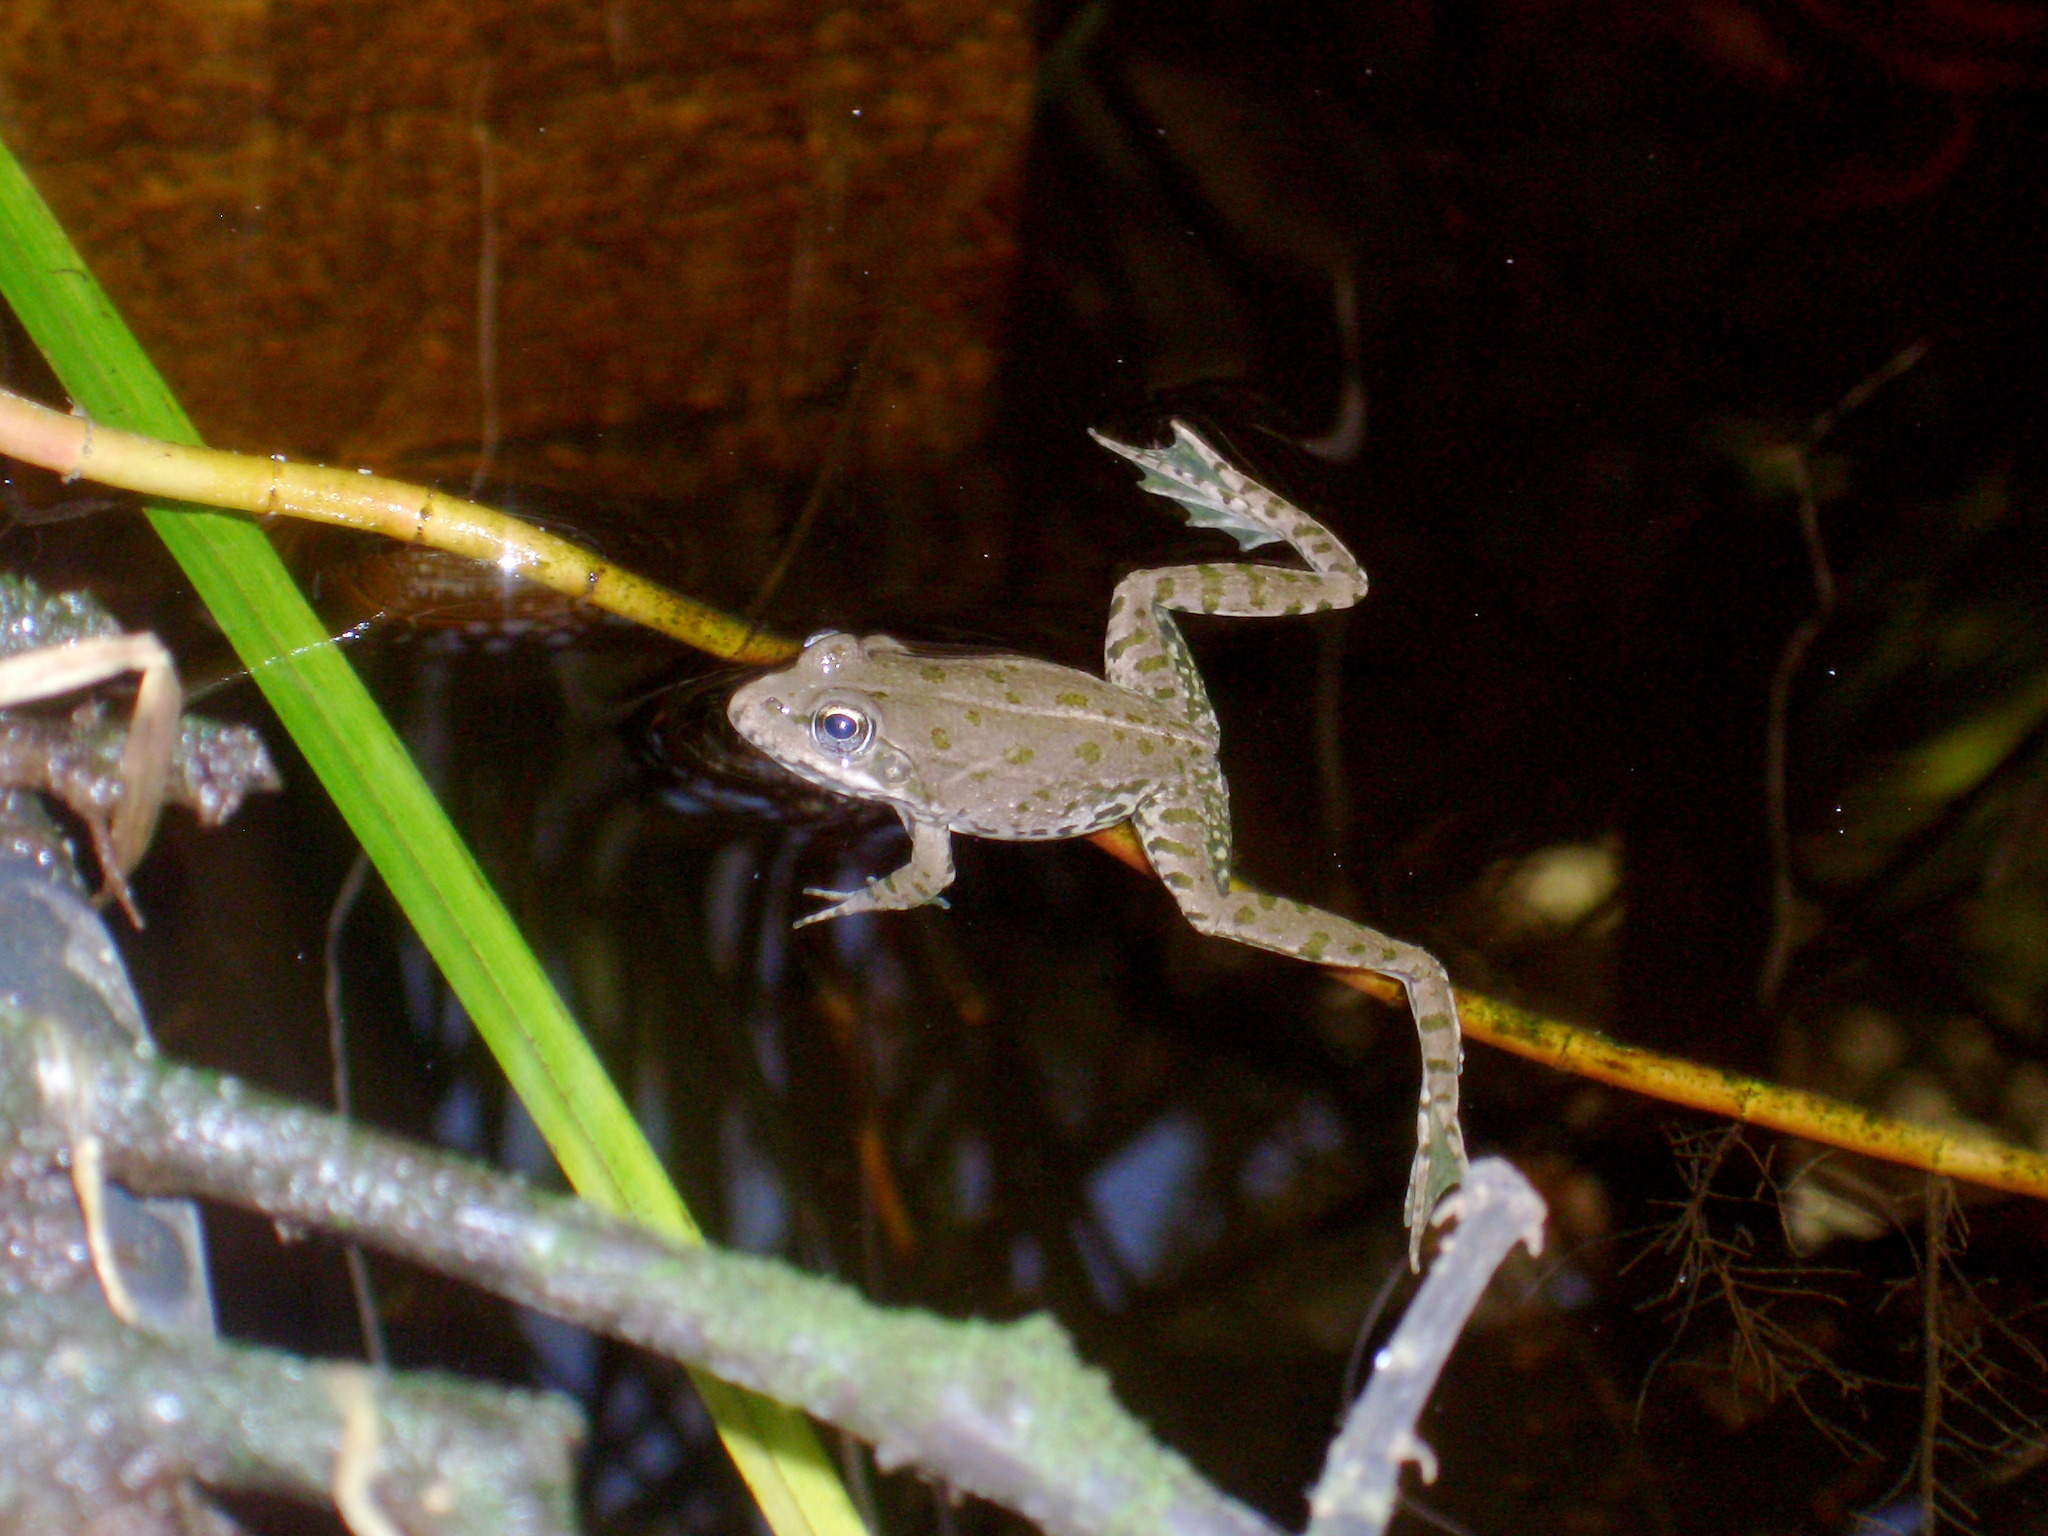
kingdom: Animalia
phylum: Chordata
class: Amphibia
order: Anura
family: Ranidae
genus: Pelophylax
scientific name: Pelophylax
